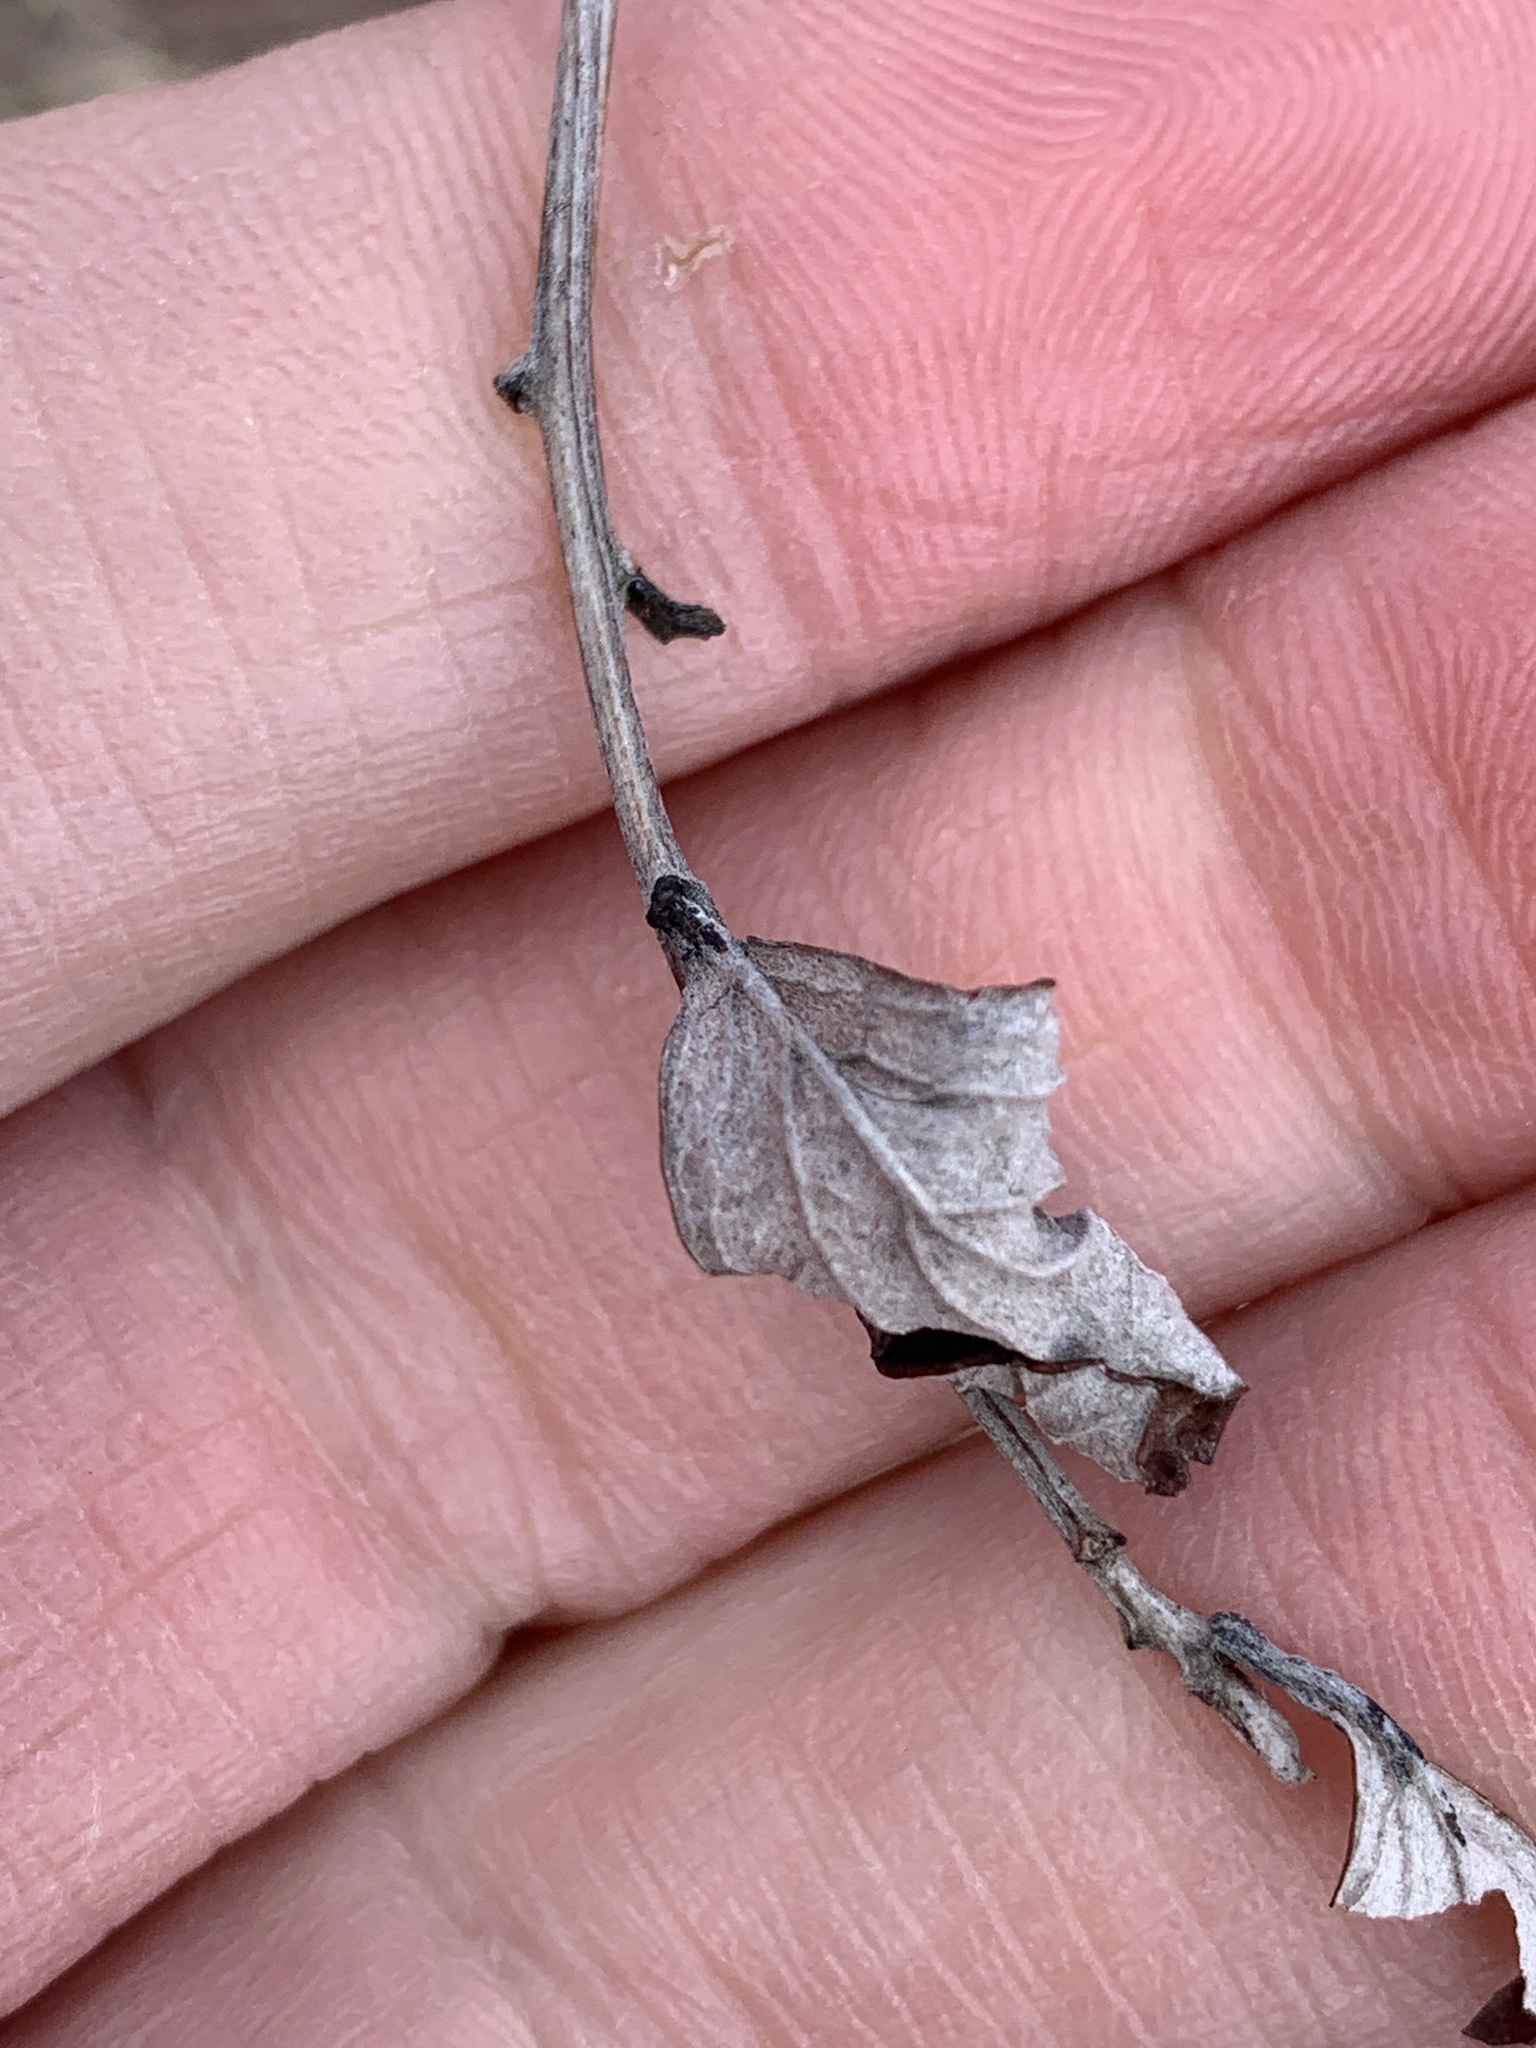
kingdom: Plantae
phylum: Tracheophyta
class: Magnoliopsida
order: Rosales
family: Rosaceae
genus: Spiraea
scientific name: Spiraea tomentosa
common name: Hardhack
